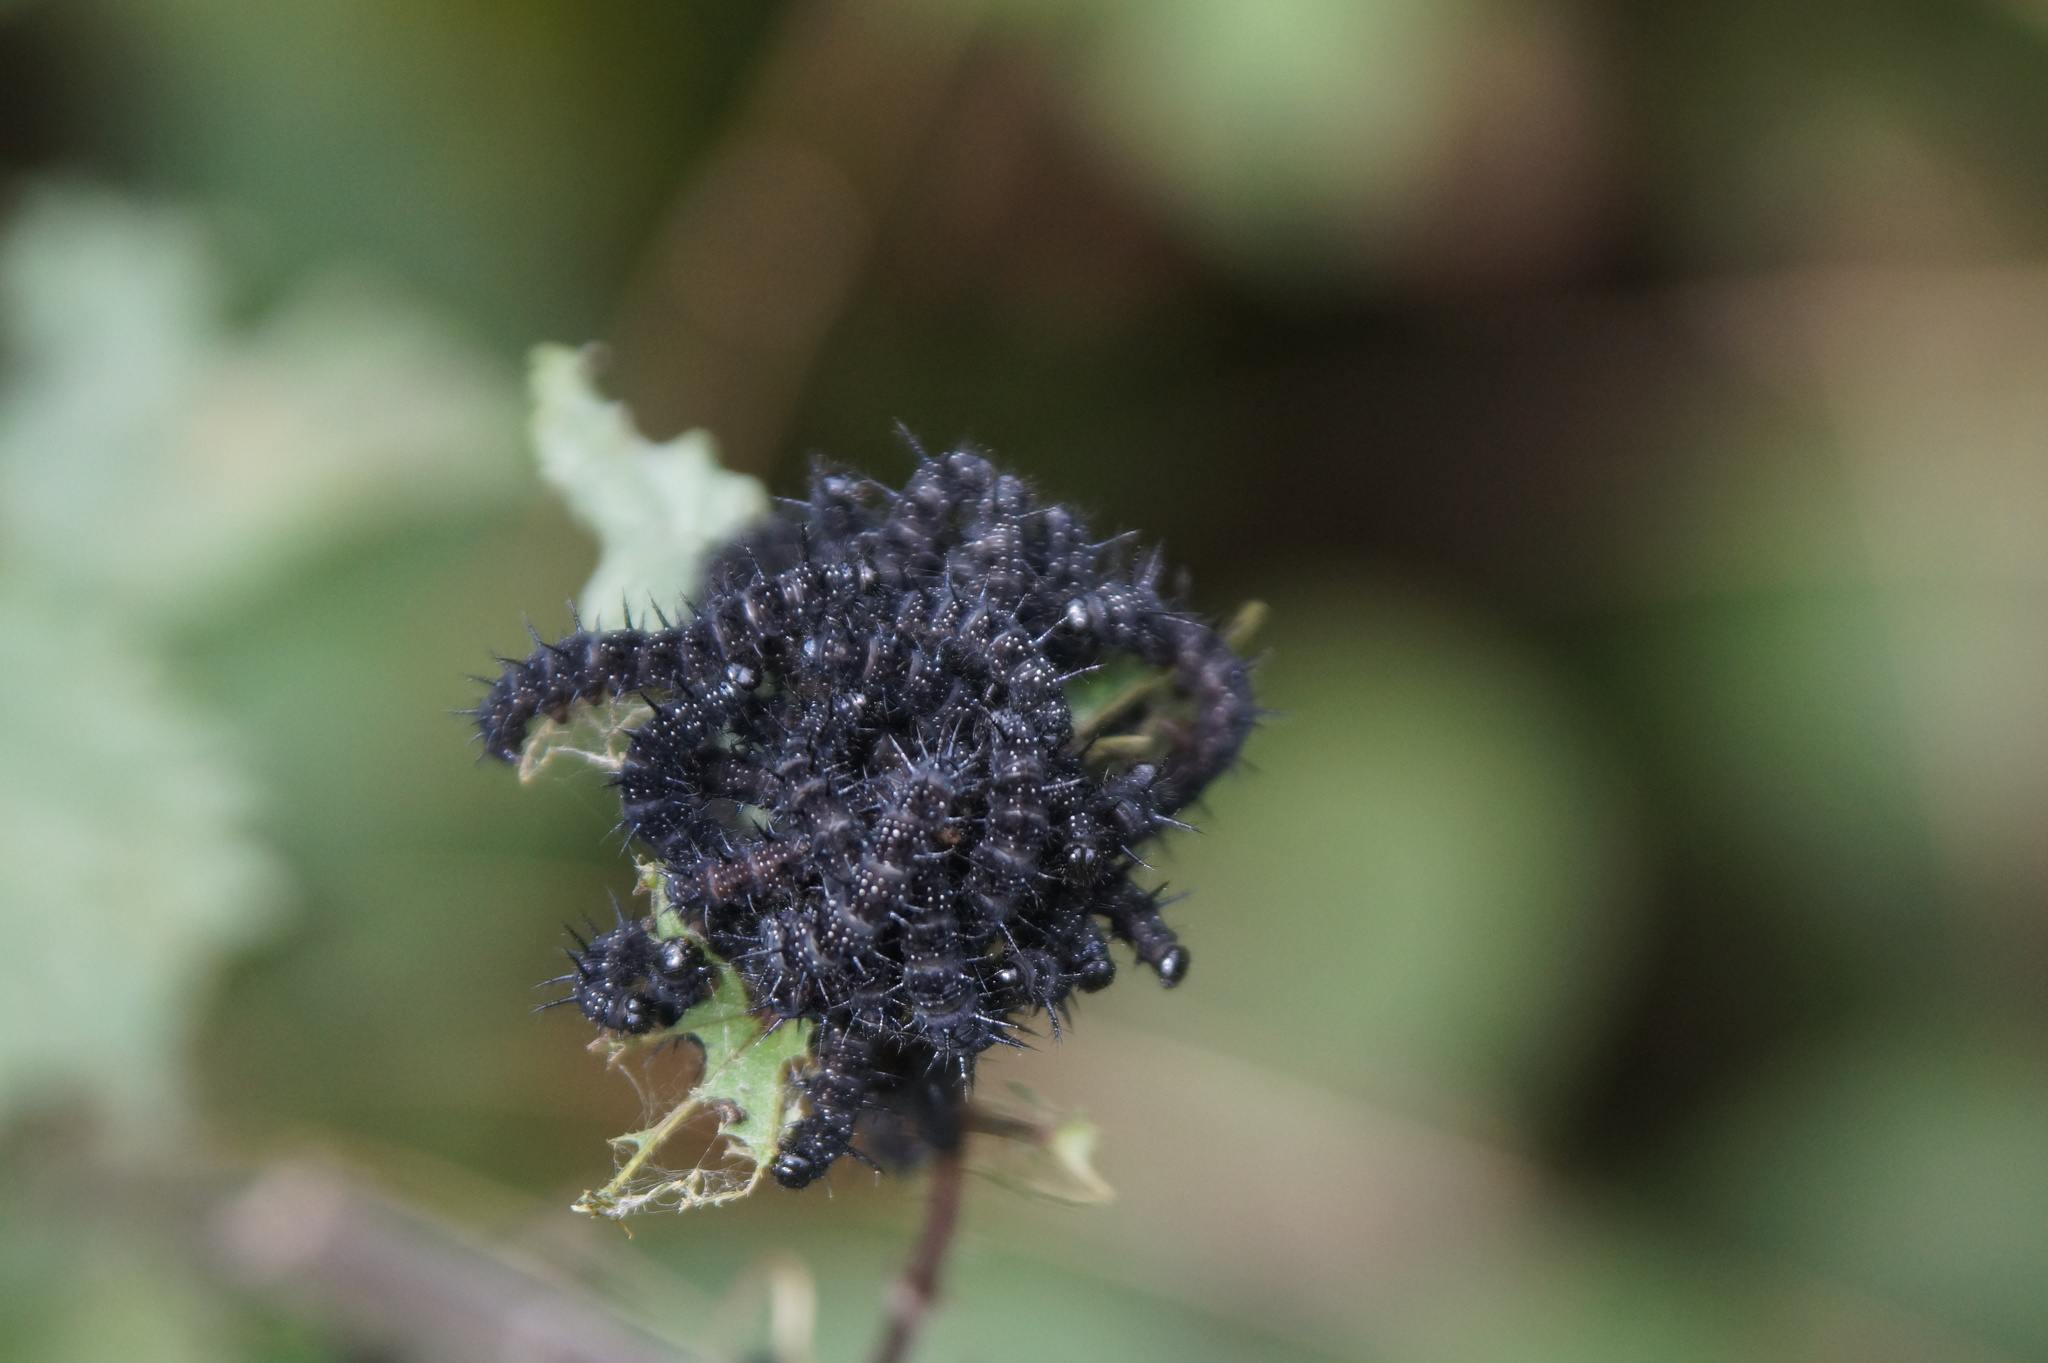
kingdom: Animalia
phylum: Arthropoda
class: Insecta
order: Lepidoptera
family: Nymphalidae
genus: Aglais
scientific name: Aglais io
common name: Peacock
